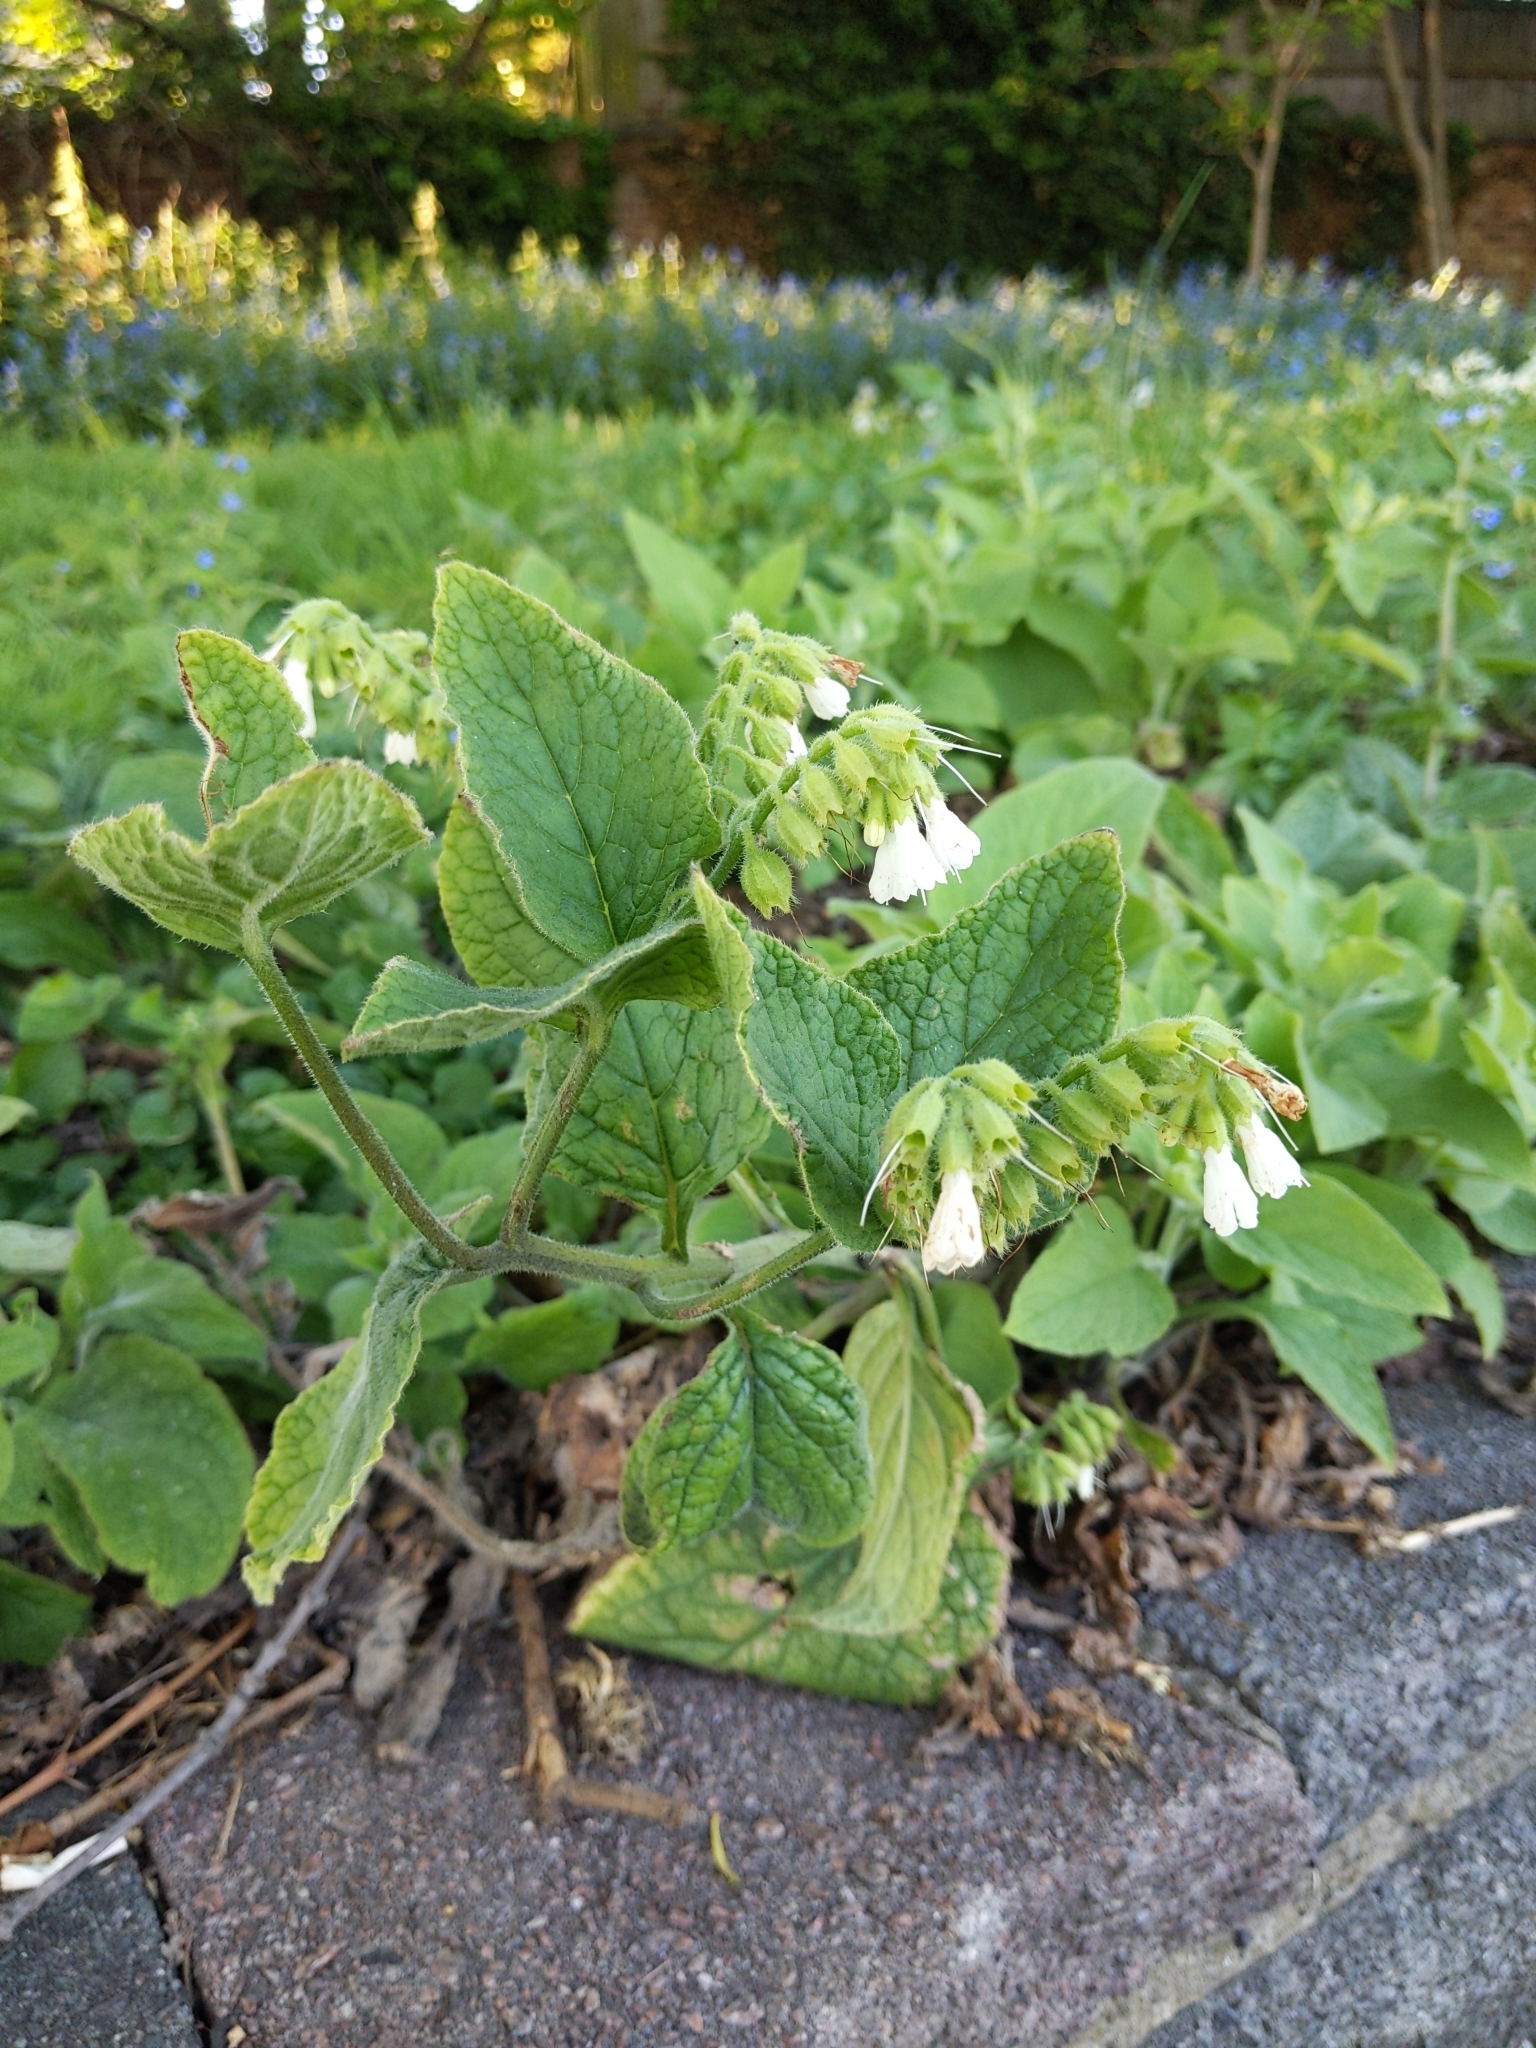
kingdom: Plantae
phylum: Tracheophyta
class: Magnoliopsida
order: Boraginales
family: Boraginaceae
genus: Symphytum
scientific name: Symphytum orientale
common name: White comfrey
